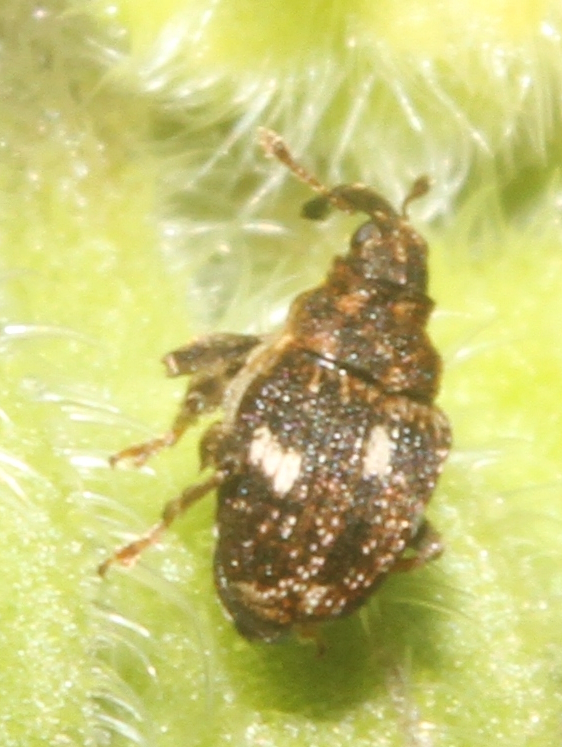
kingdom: Animalia
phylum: Arthropoda
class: Insecta
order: Coleoptera
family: Curculionidae
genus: Nedyus
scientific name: Nedyus quadrimaculatus
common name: Small nettle weevil
